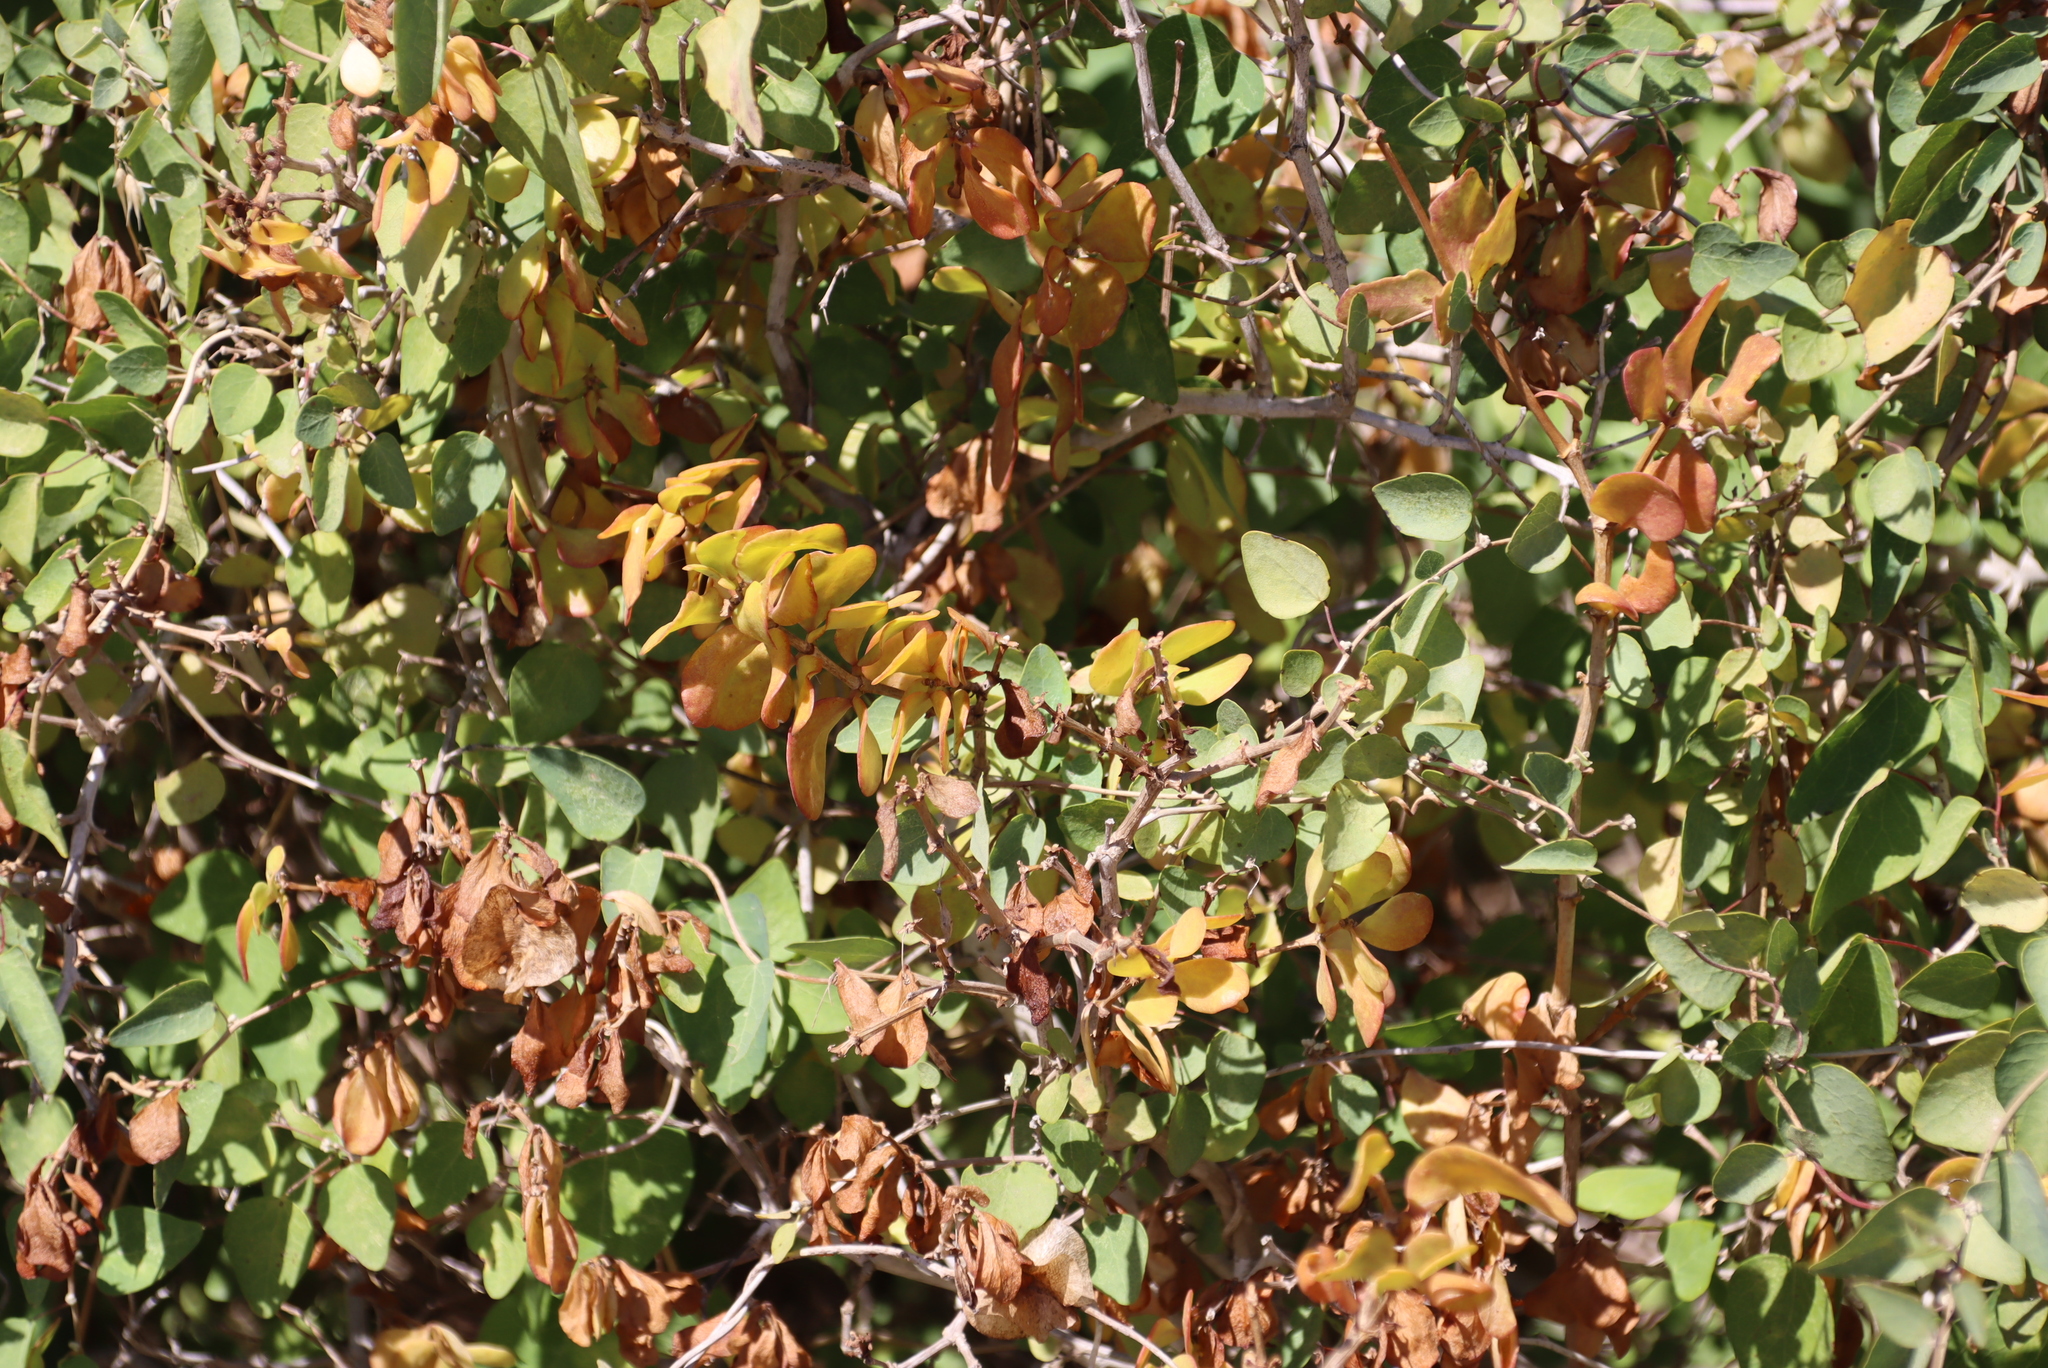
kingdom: Plantae
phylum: Tracheophyta
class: Magnoliopsida
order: Zygophyllales
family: Zygophyllaceae
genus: Roepera
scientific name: Roepera morgsana
